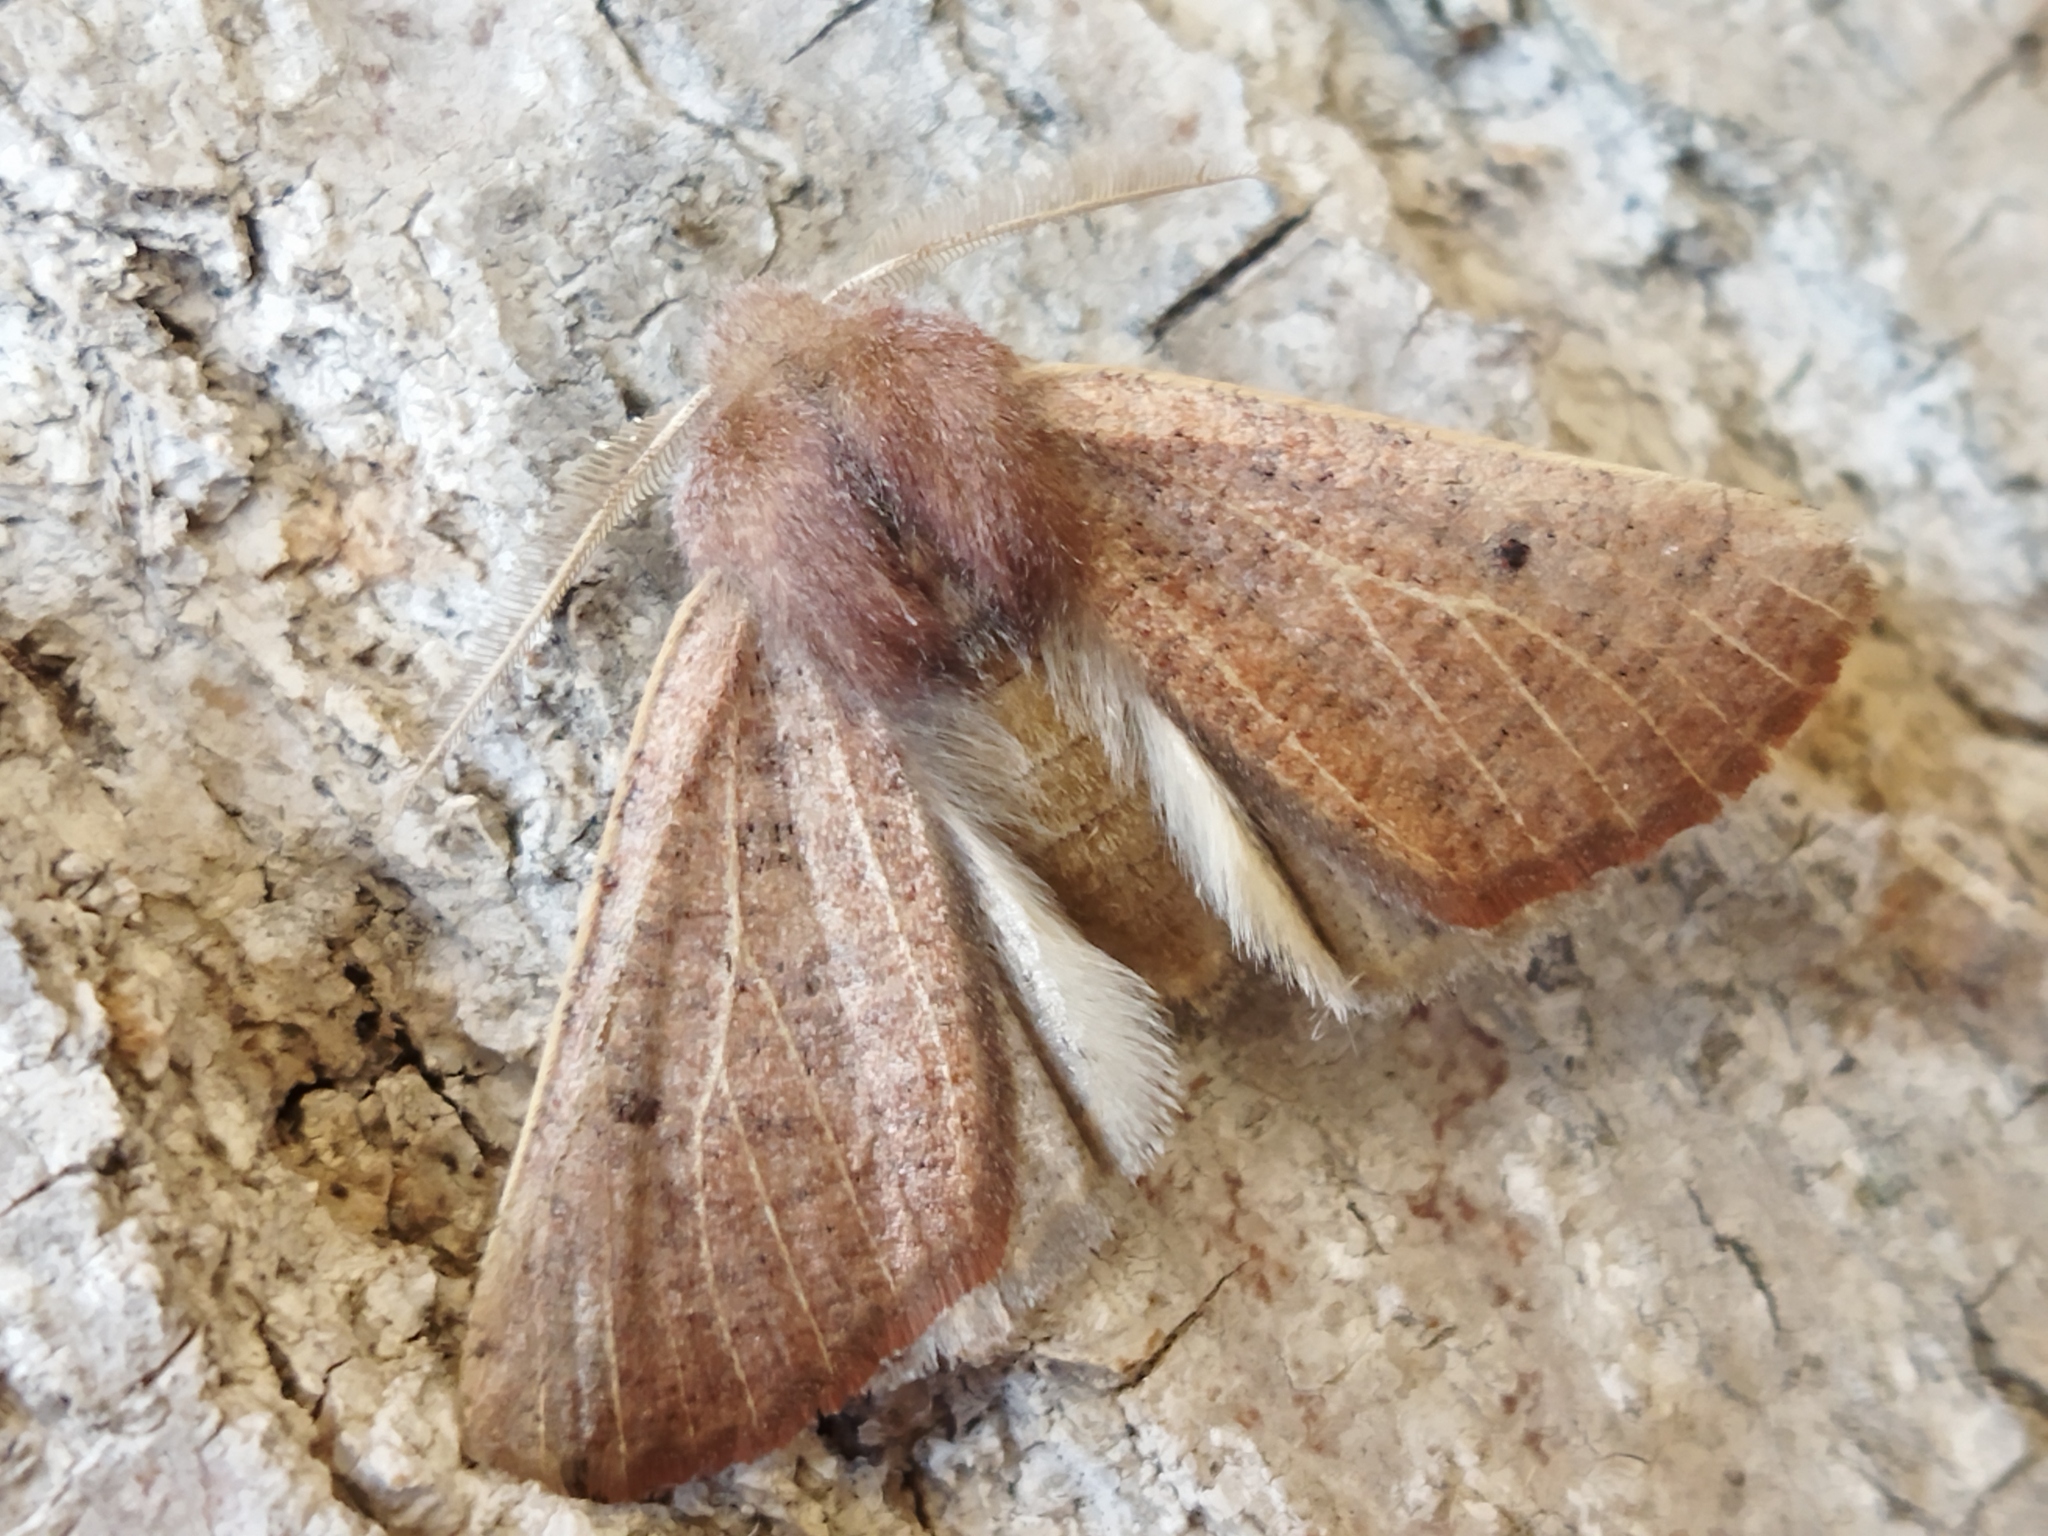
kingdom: Animalia
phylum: Arthropoda
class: Insecta
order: Lepidoptera
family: Geometridae
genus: Dasycorsa
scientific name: Dasycorsa modesta
